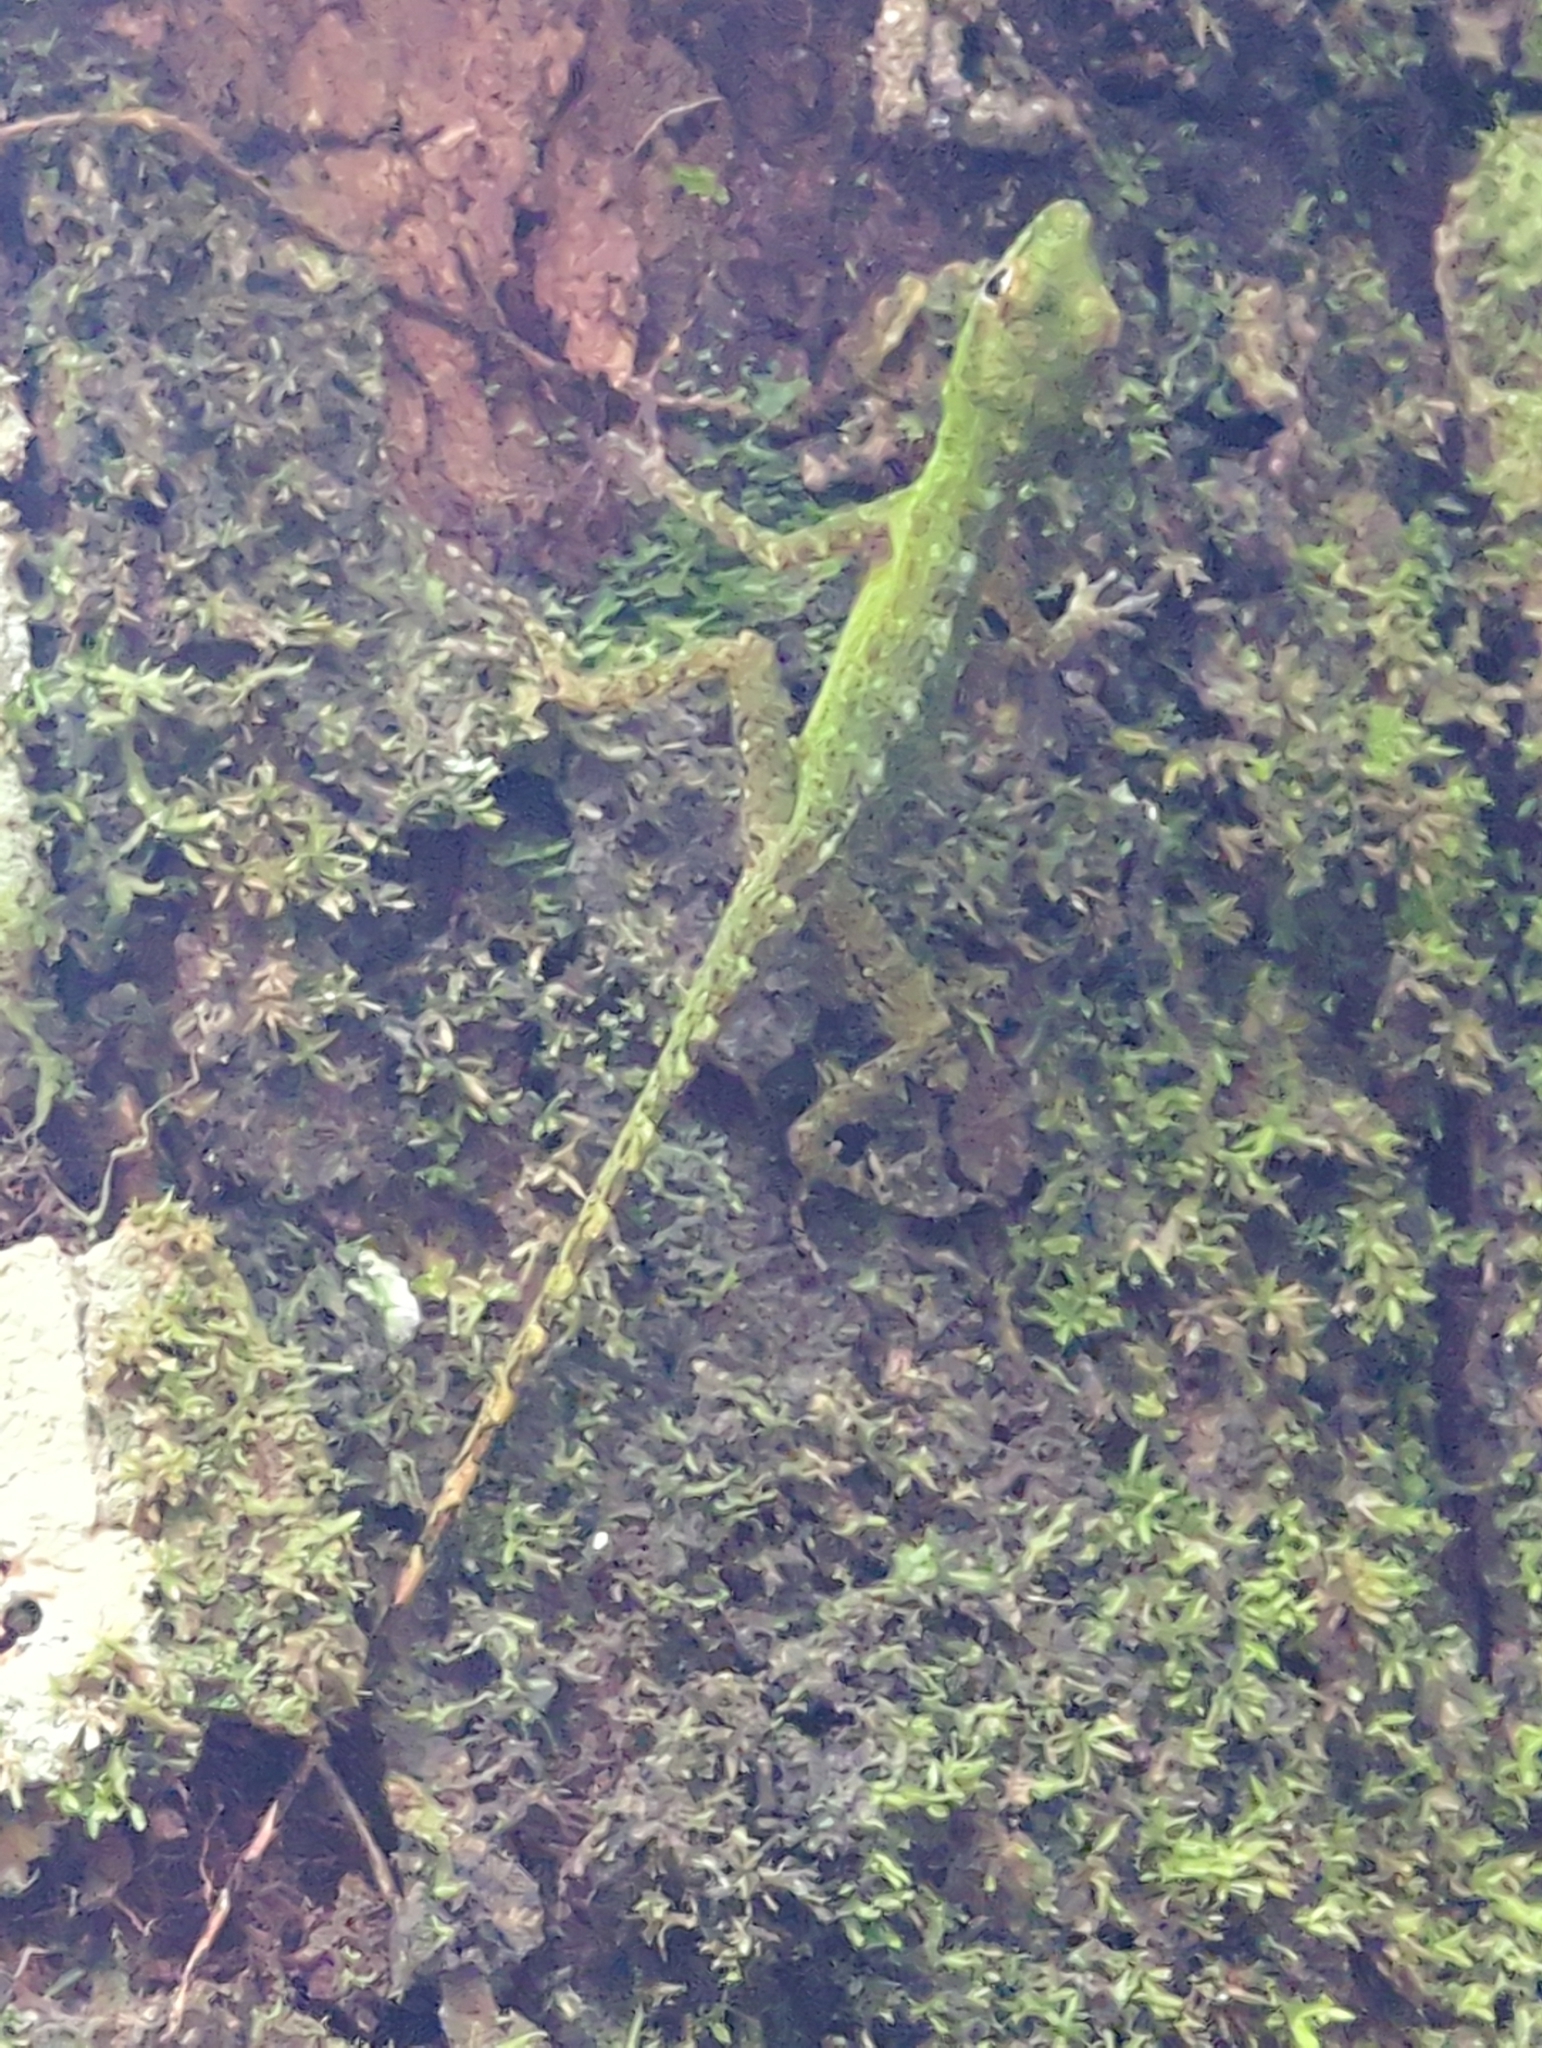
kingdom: Animalia
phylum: Chordata
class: Squamata
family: Dactyloidae
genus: Anolis
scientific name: Anolis evermanni
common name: Emerald anole
